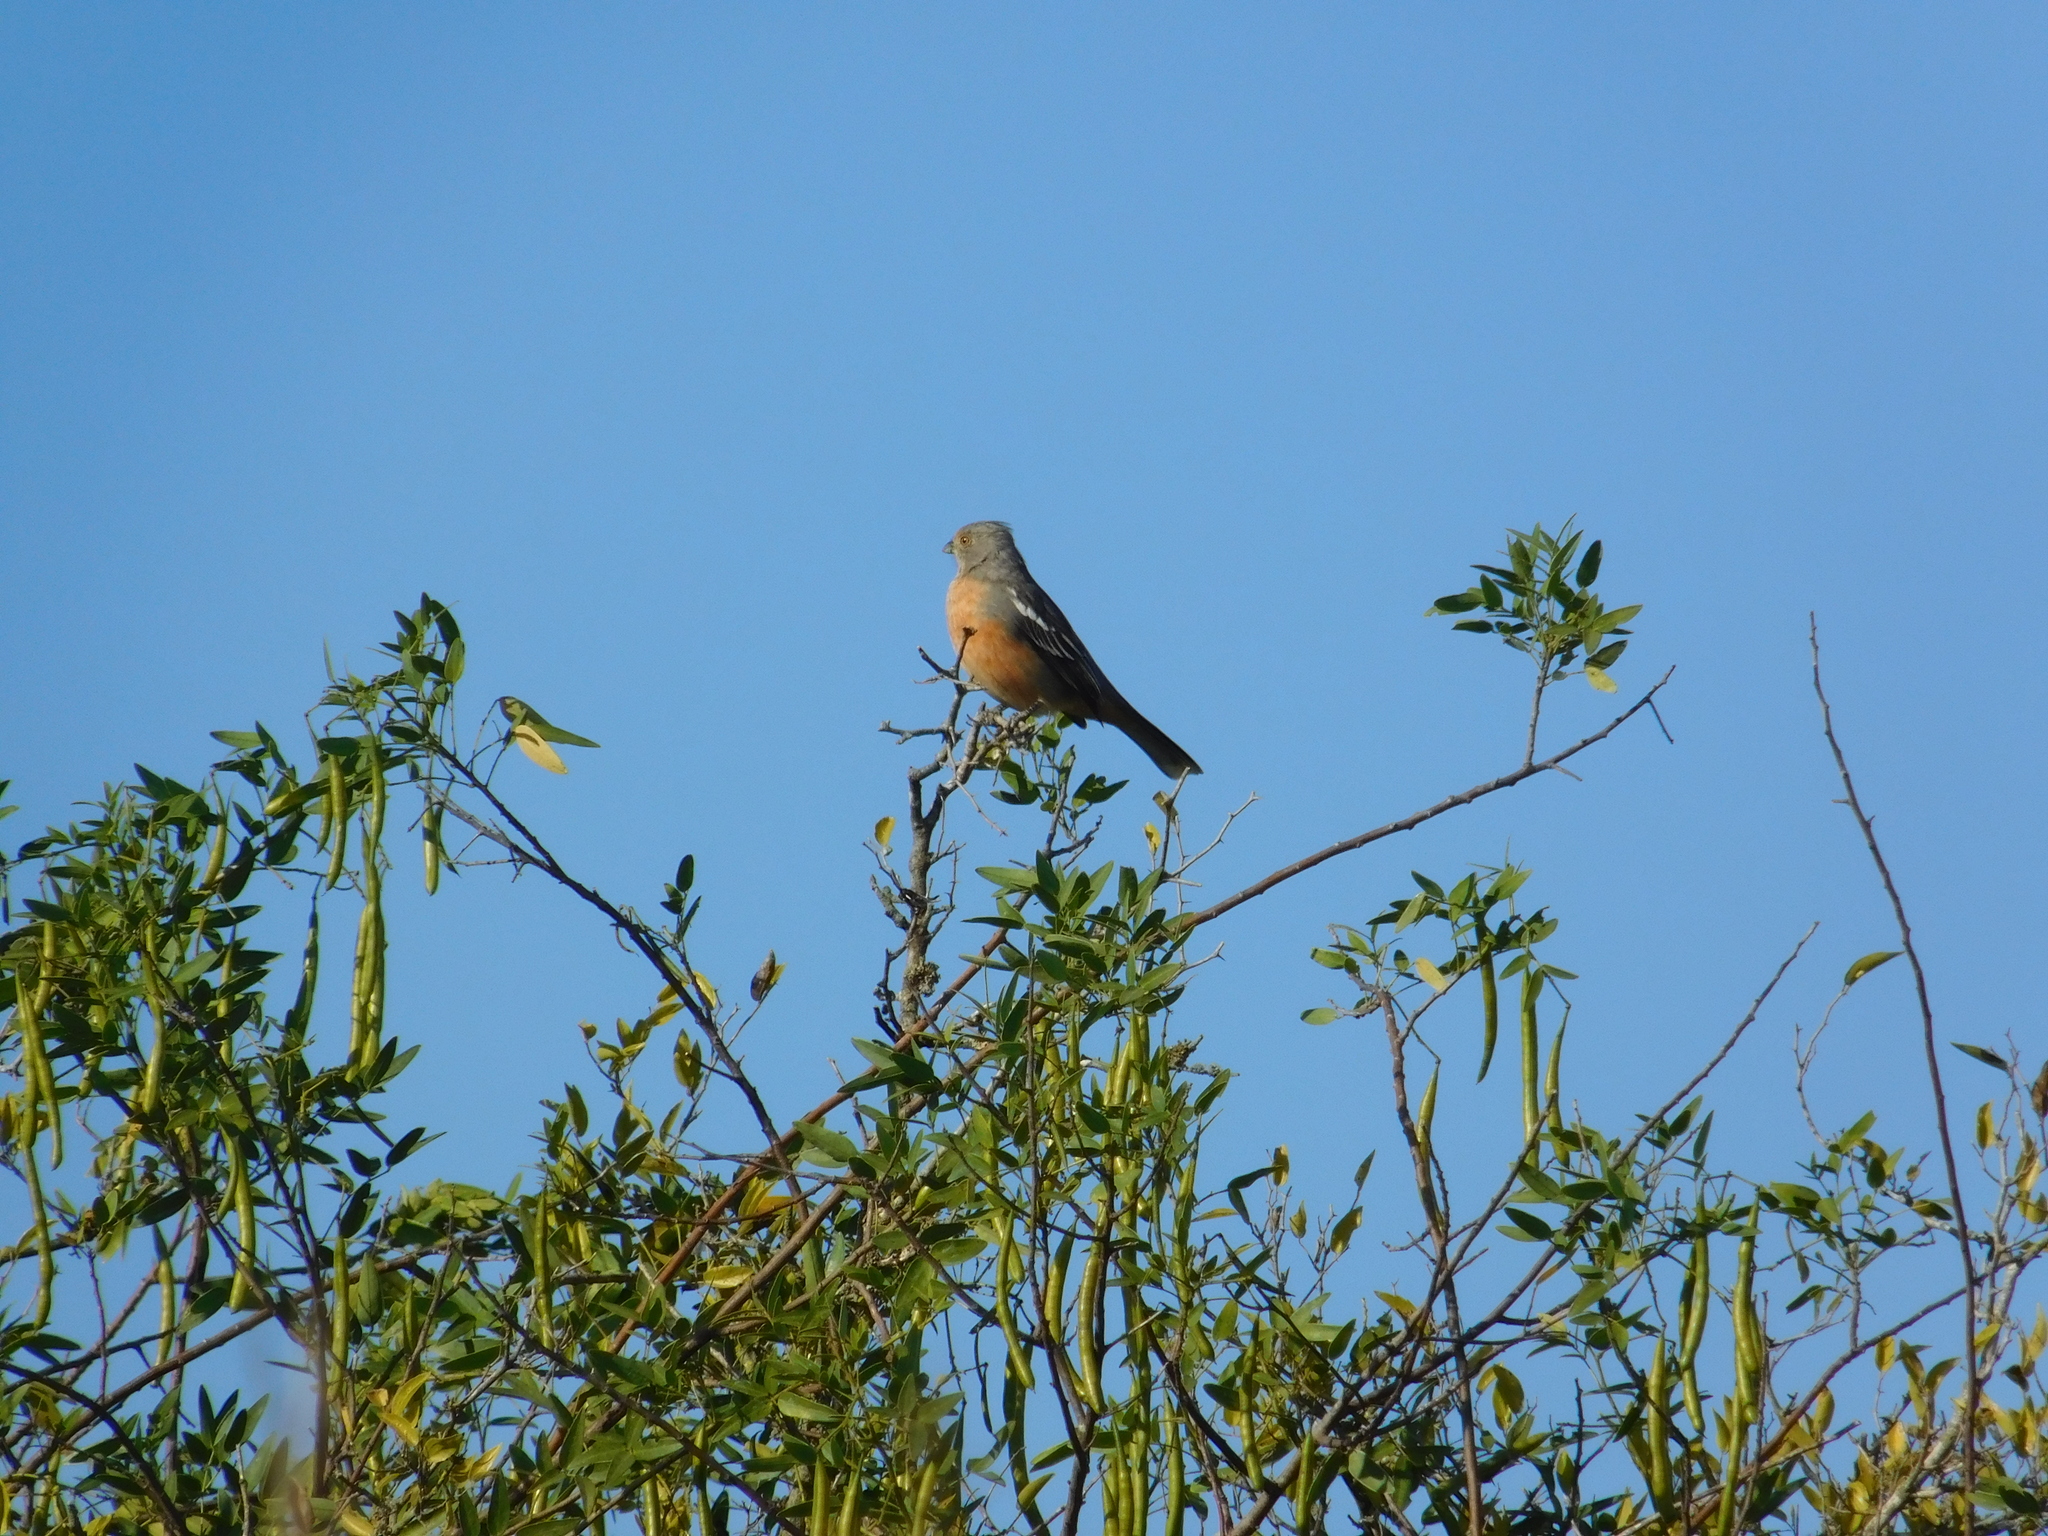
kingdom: Animalia
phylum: Chordata
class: Aves
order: Passeriformes
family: Cotingidae
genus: Phytotoma
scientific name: Phytotoma rutila
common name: White-tipped plantcutter
